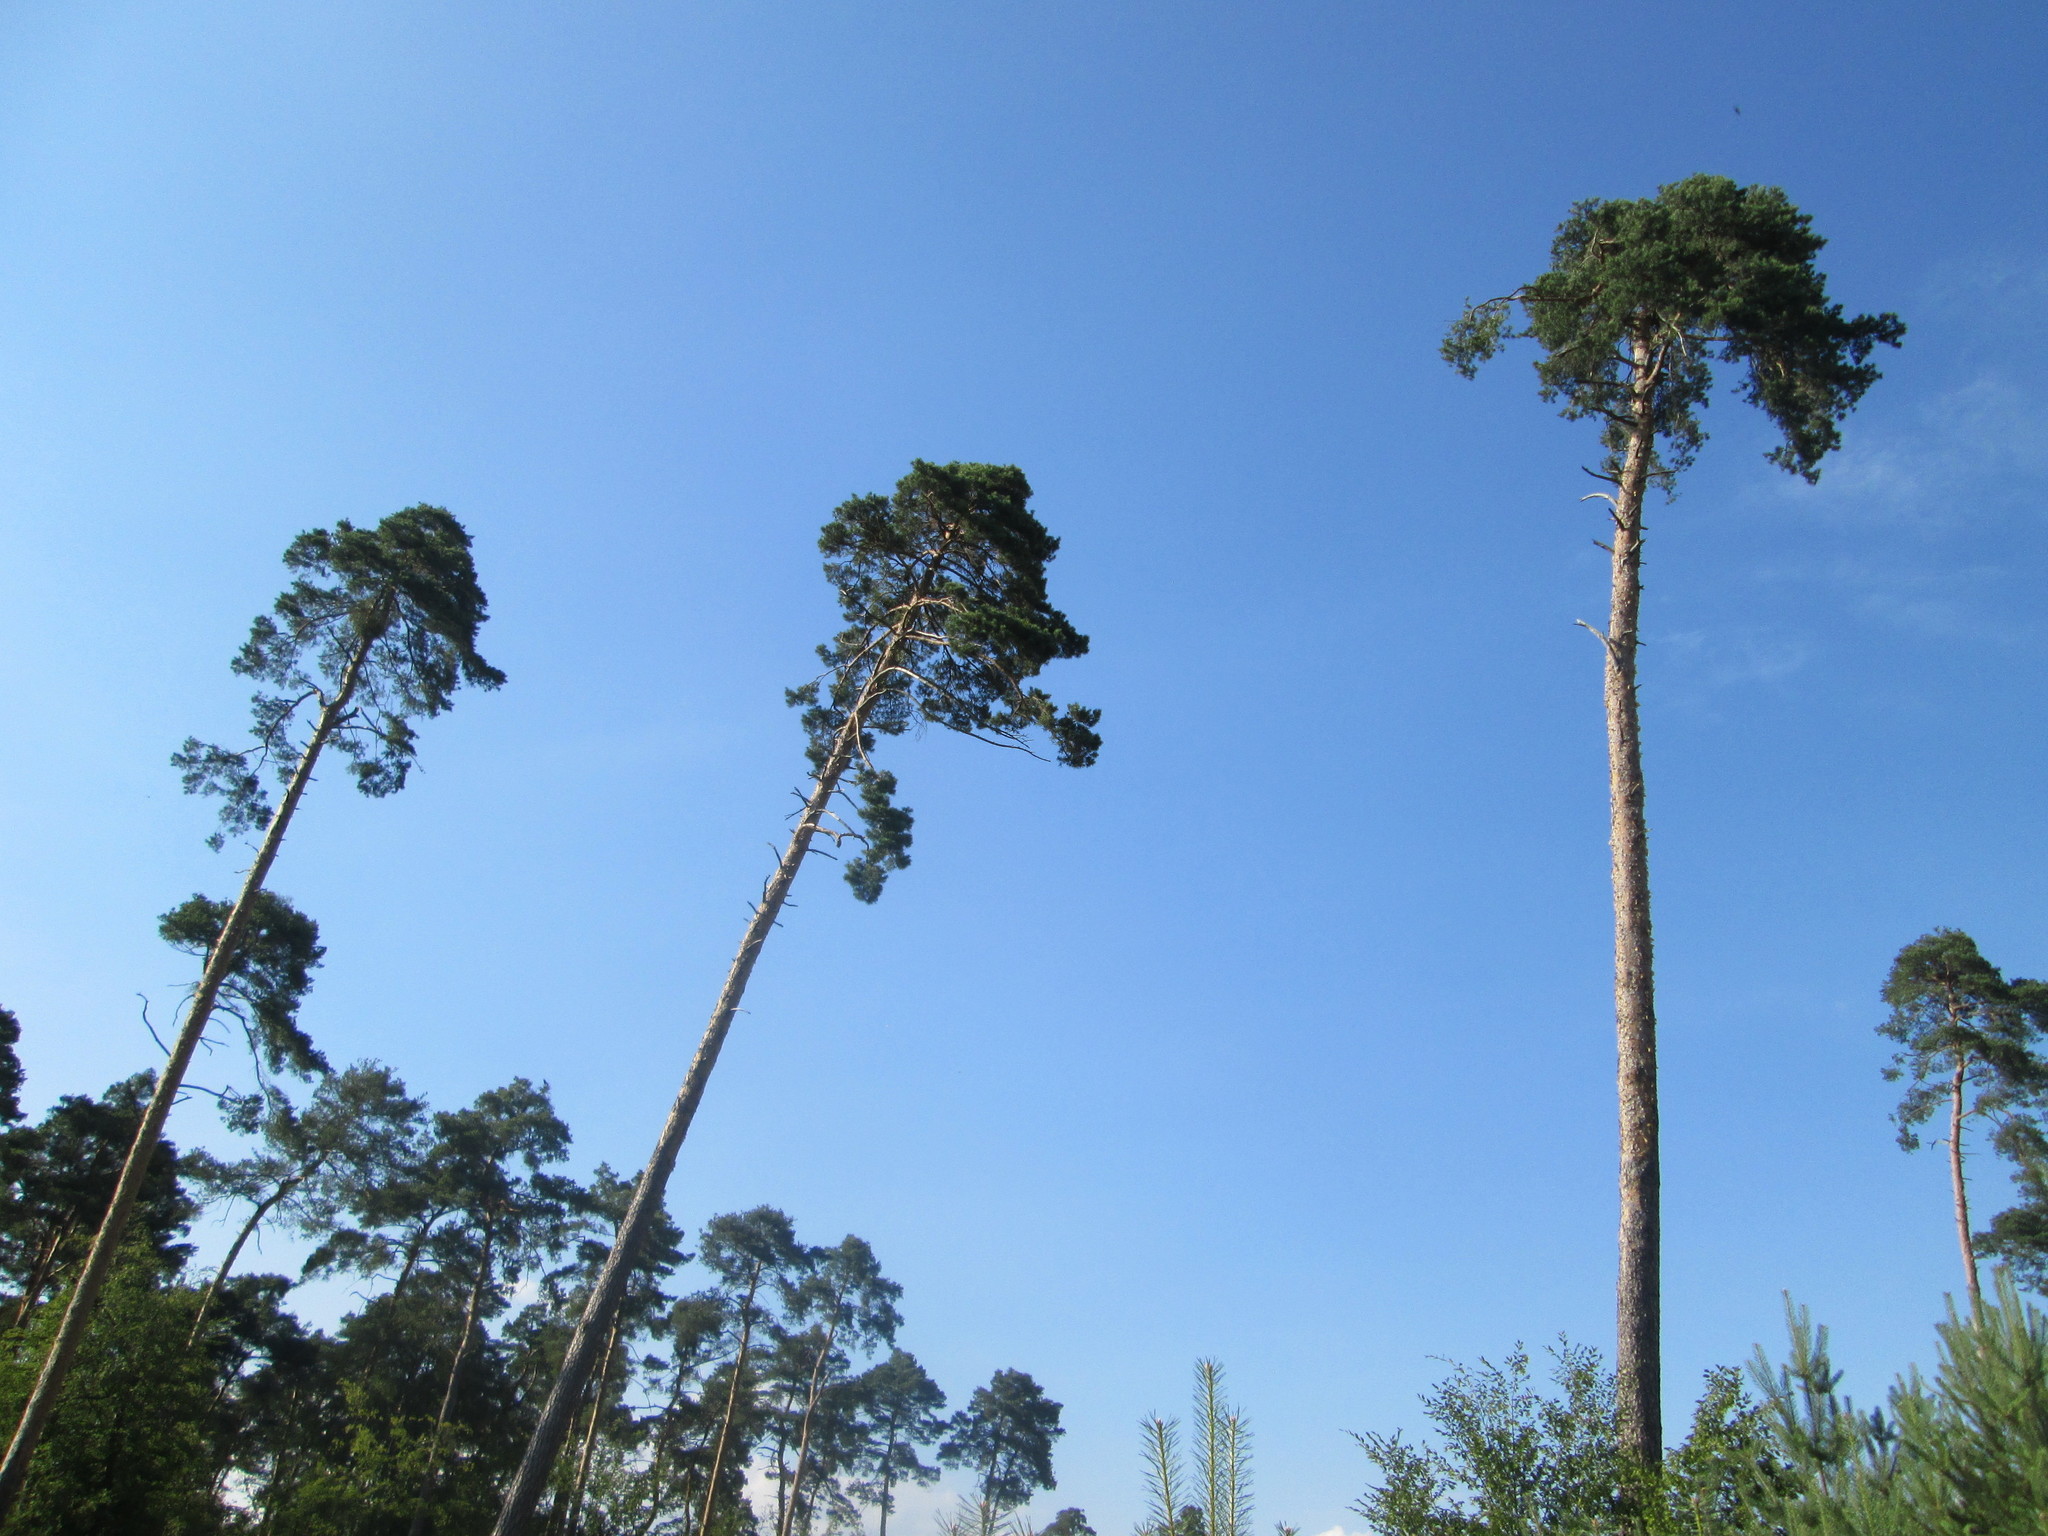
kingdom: Plantae
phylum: Tracheophyta
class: Pinopsida
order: Pinales
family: Pinaceae
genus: Pinus
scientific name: Pinus sylvestris
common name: Scots pine
